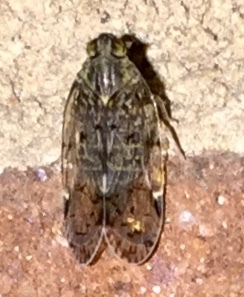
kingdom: Animalia
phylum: Arthropoda
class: Insecta
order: Hemiptera
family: Cixiidae
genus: Melanoliarus
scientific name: Melanoliarus placitus
